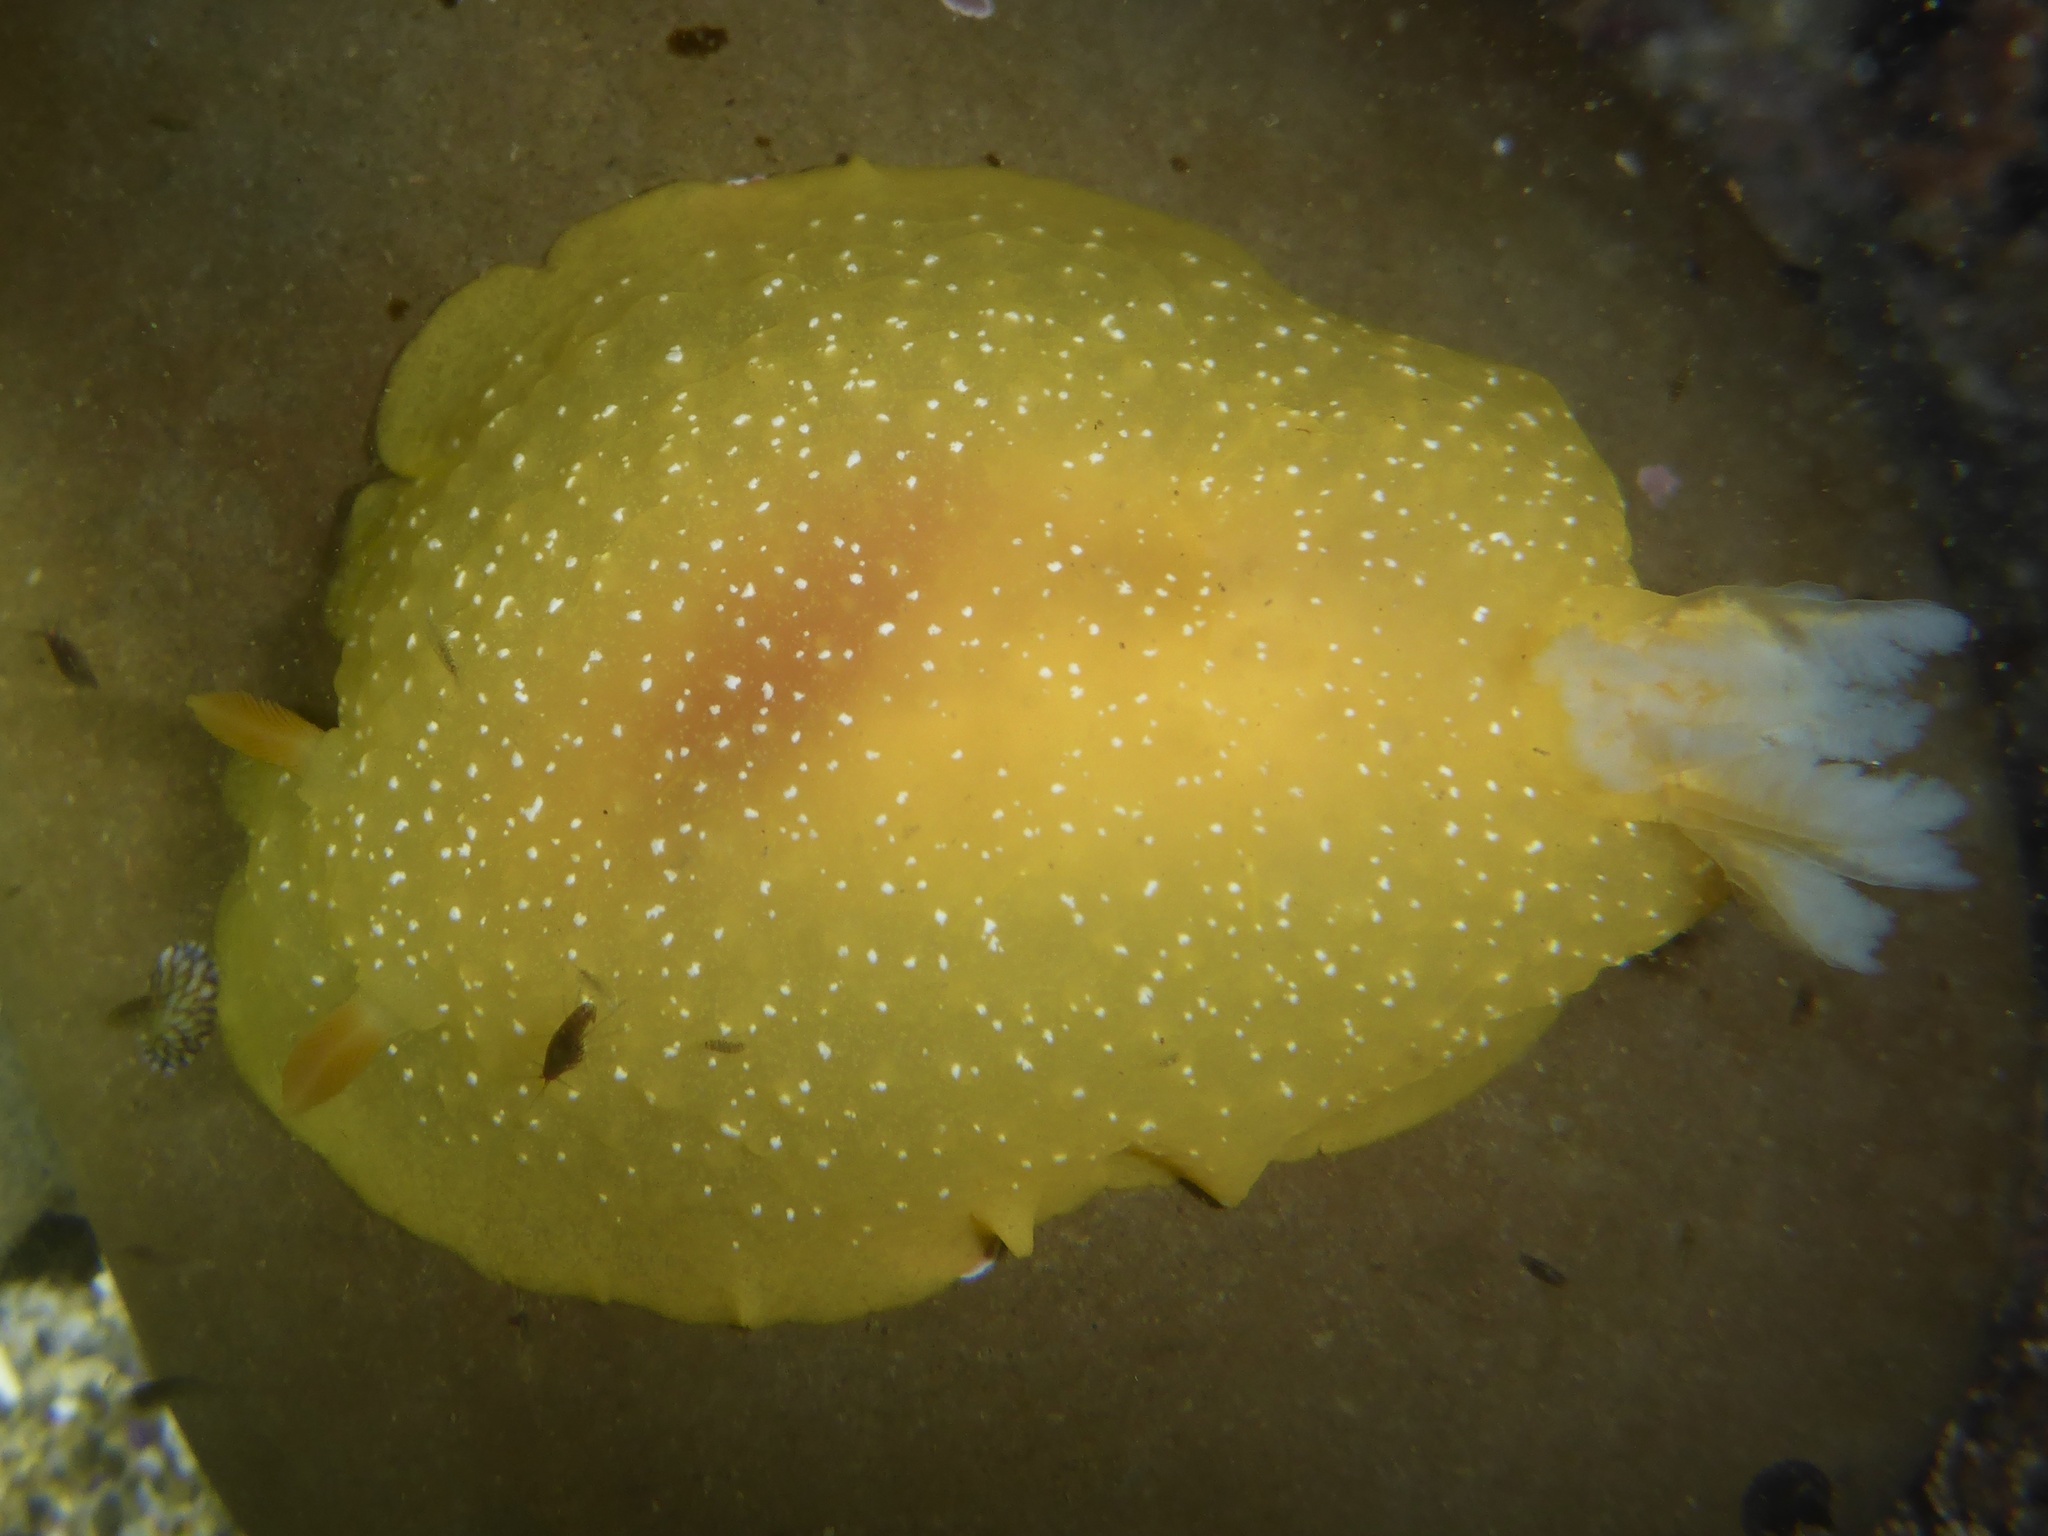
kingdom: Animalia
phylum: Mollusca
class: Gastropoda
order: Nudibranchia
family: Dendrodorididae
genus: Doriopsilla
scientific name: Doriopsilla fulva
